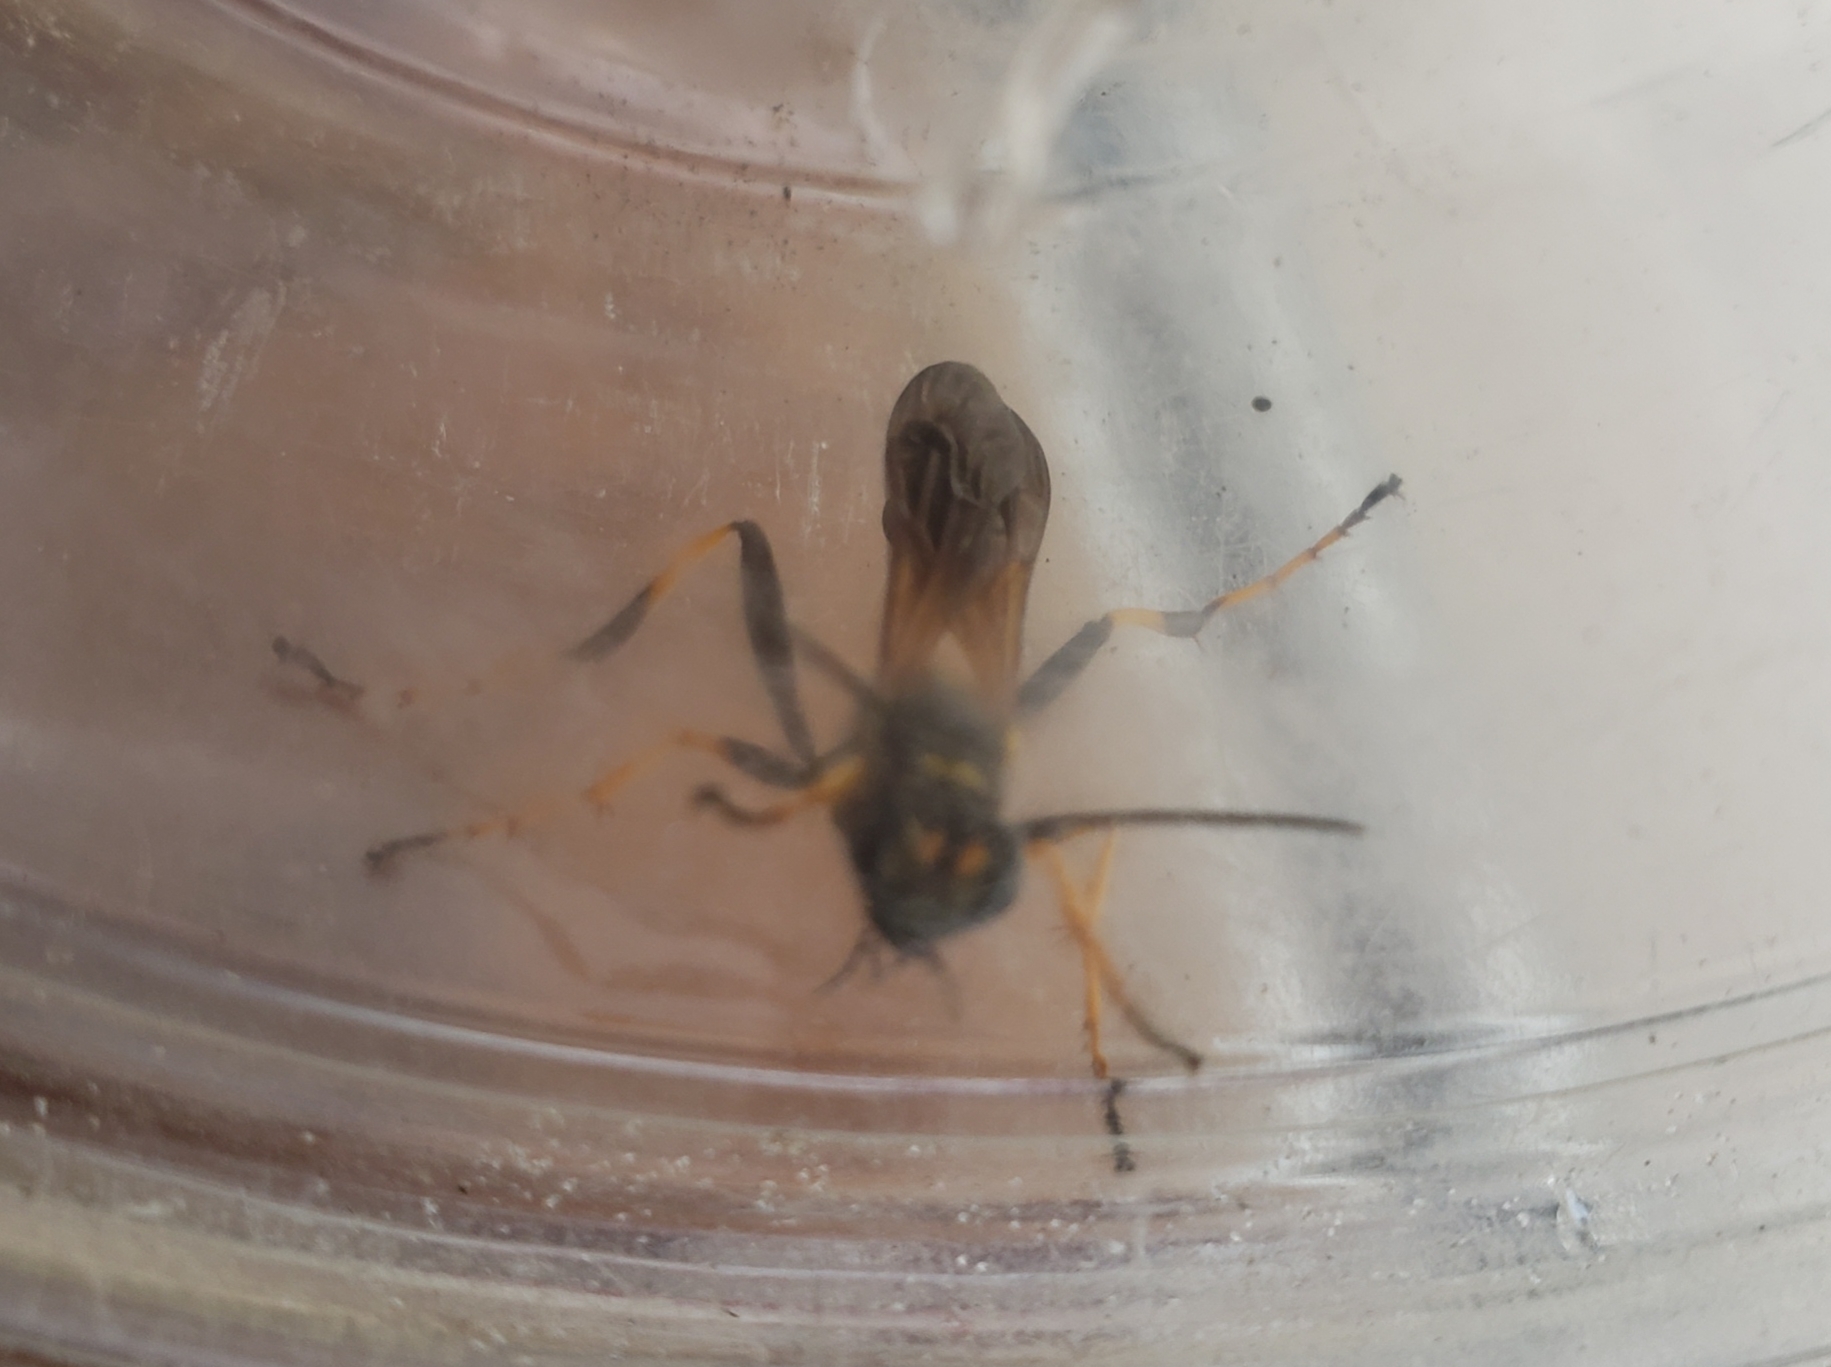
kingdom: Animalia
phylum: Arthropoda
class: Insecta
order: Hymenoptera
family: Sphecidae
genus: Sceliphron
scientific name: Sceliphron caementarium
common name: Mud dauber
